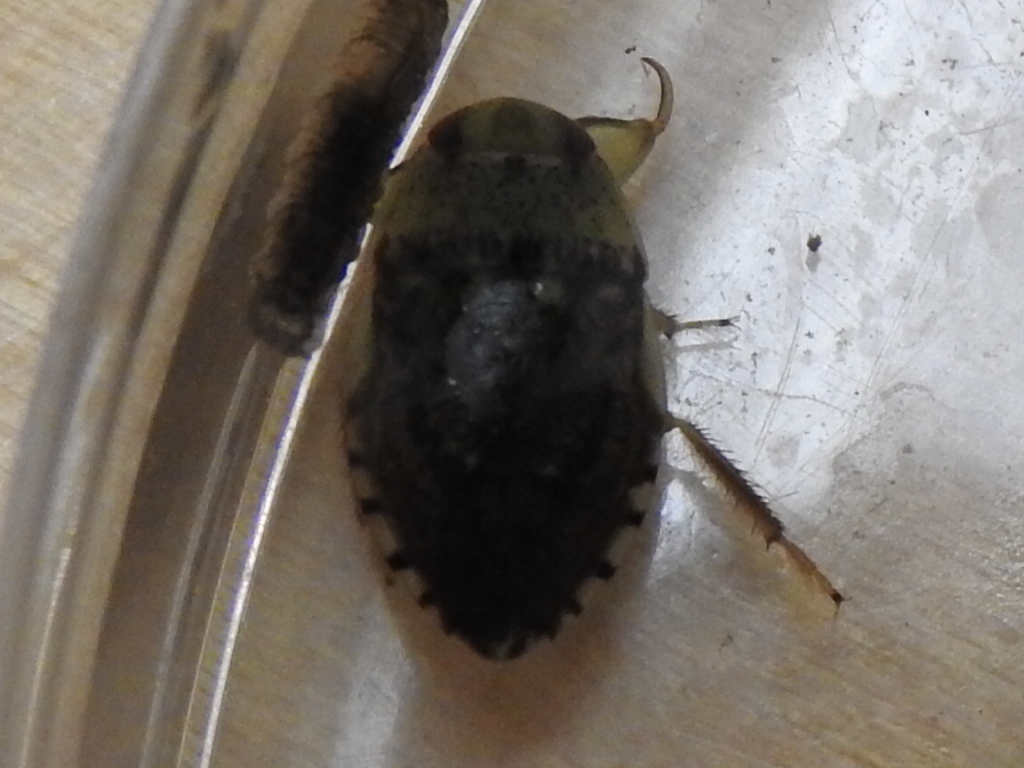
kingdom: Animalia
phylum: Arthropoda
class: Insecta
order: Hemiptera
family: Naucoridae
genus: Pelocoris
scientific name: Pelocoris
